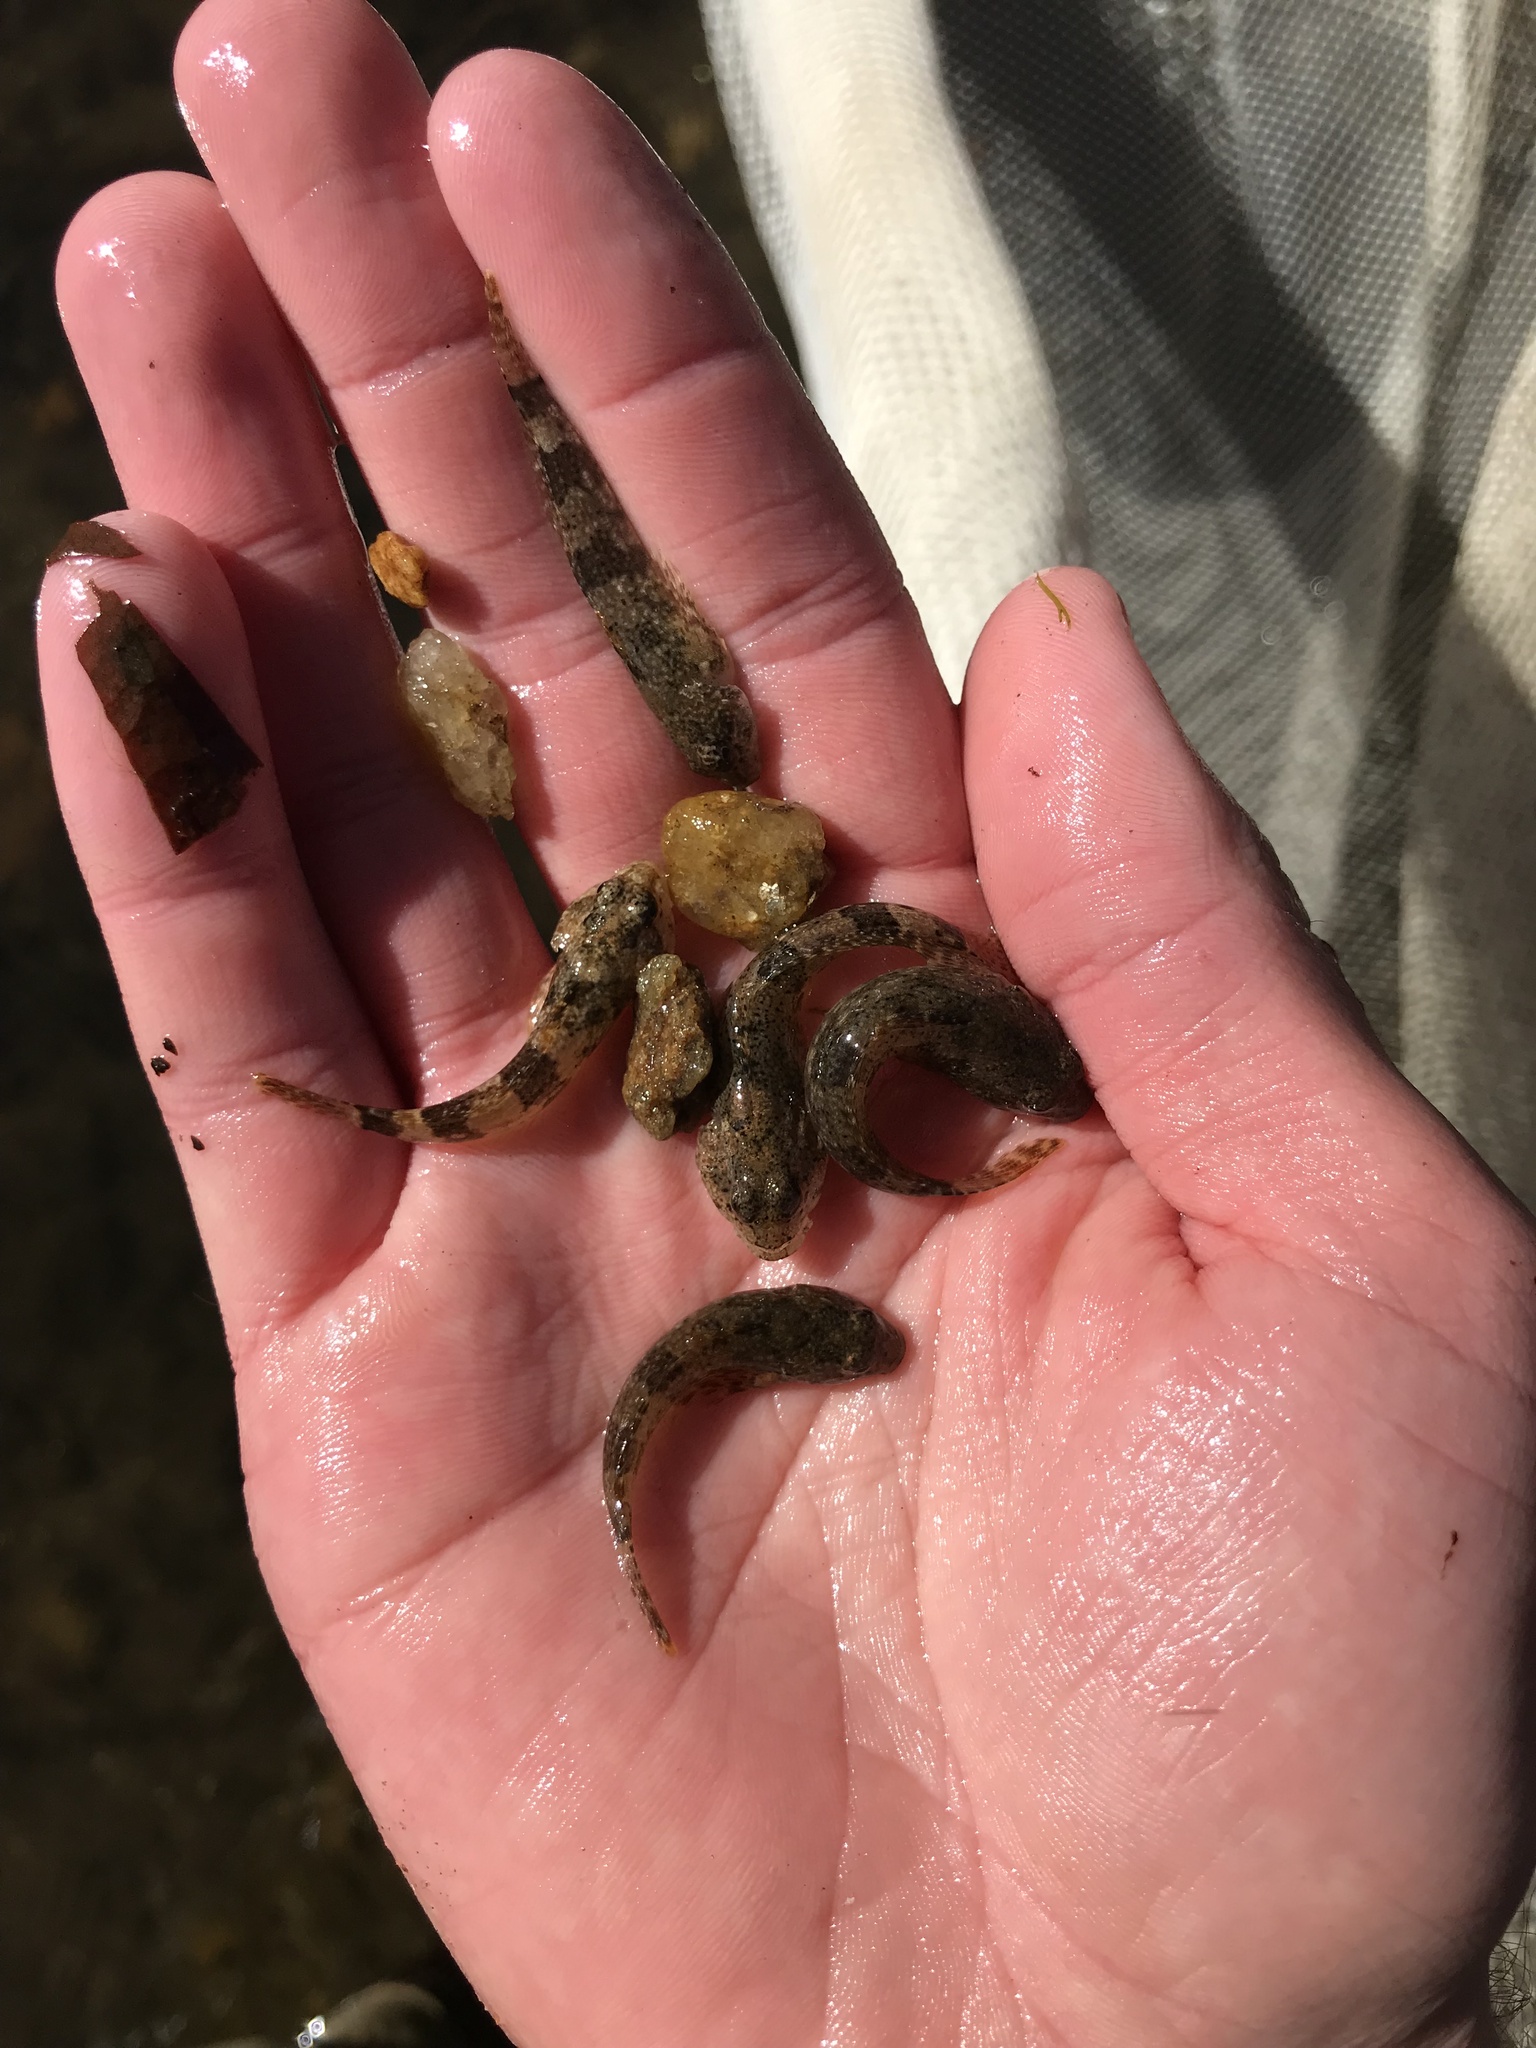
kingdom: Animalia
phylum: Chordata
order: Scorpaeniformes
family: Cottidae
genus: Cottus
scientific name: Cottus bairdii
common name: Mottled sculpin
